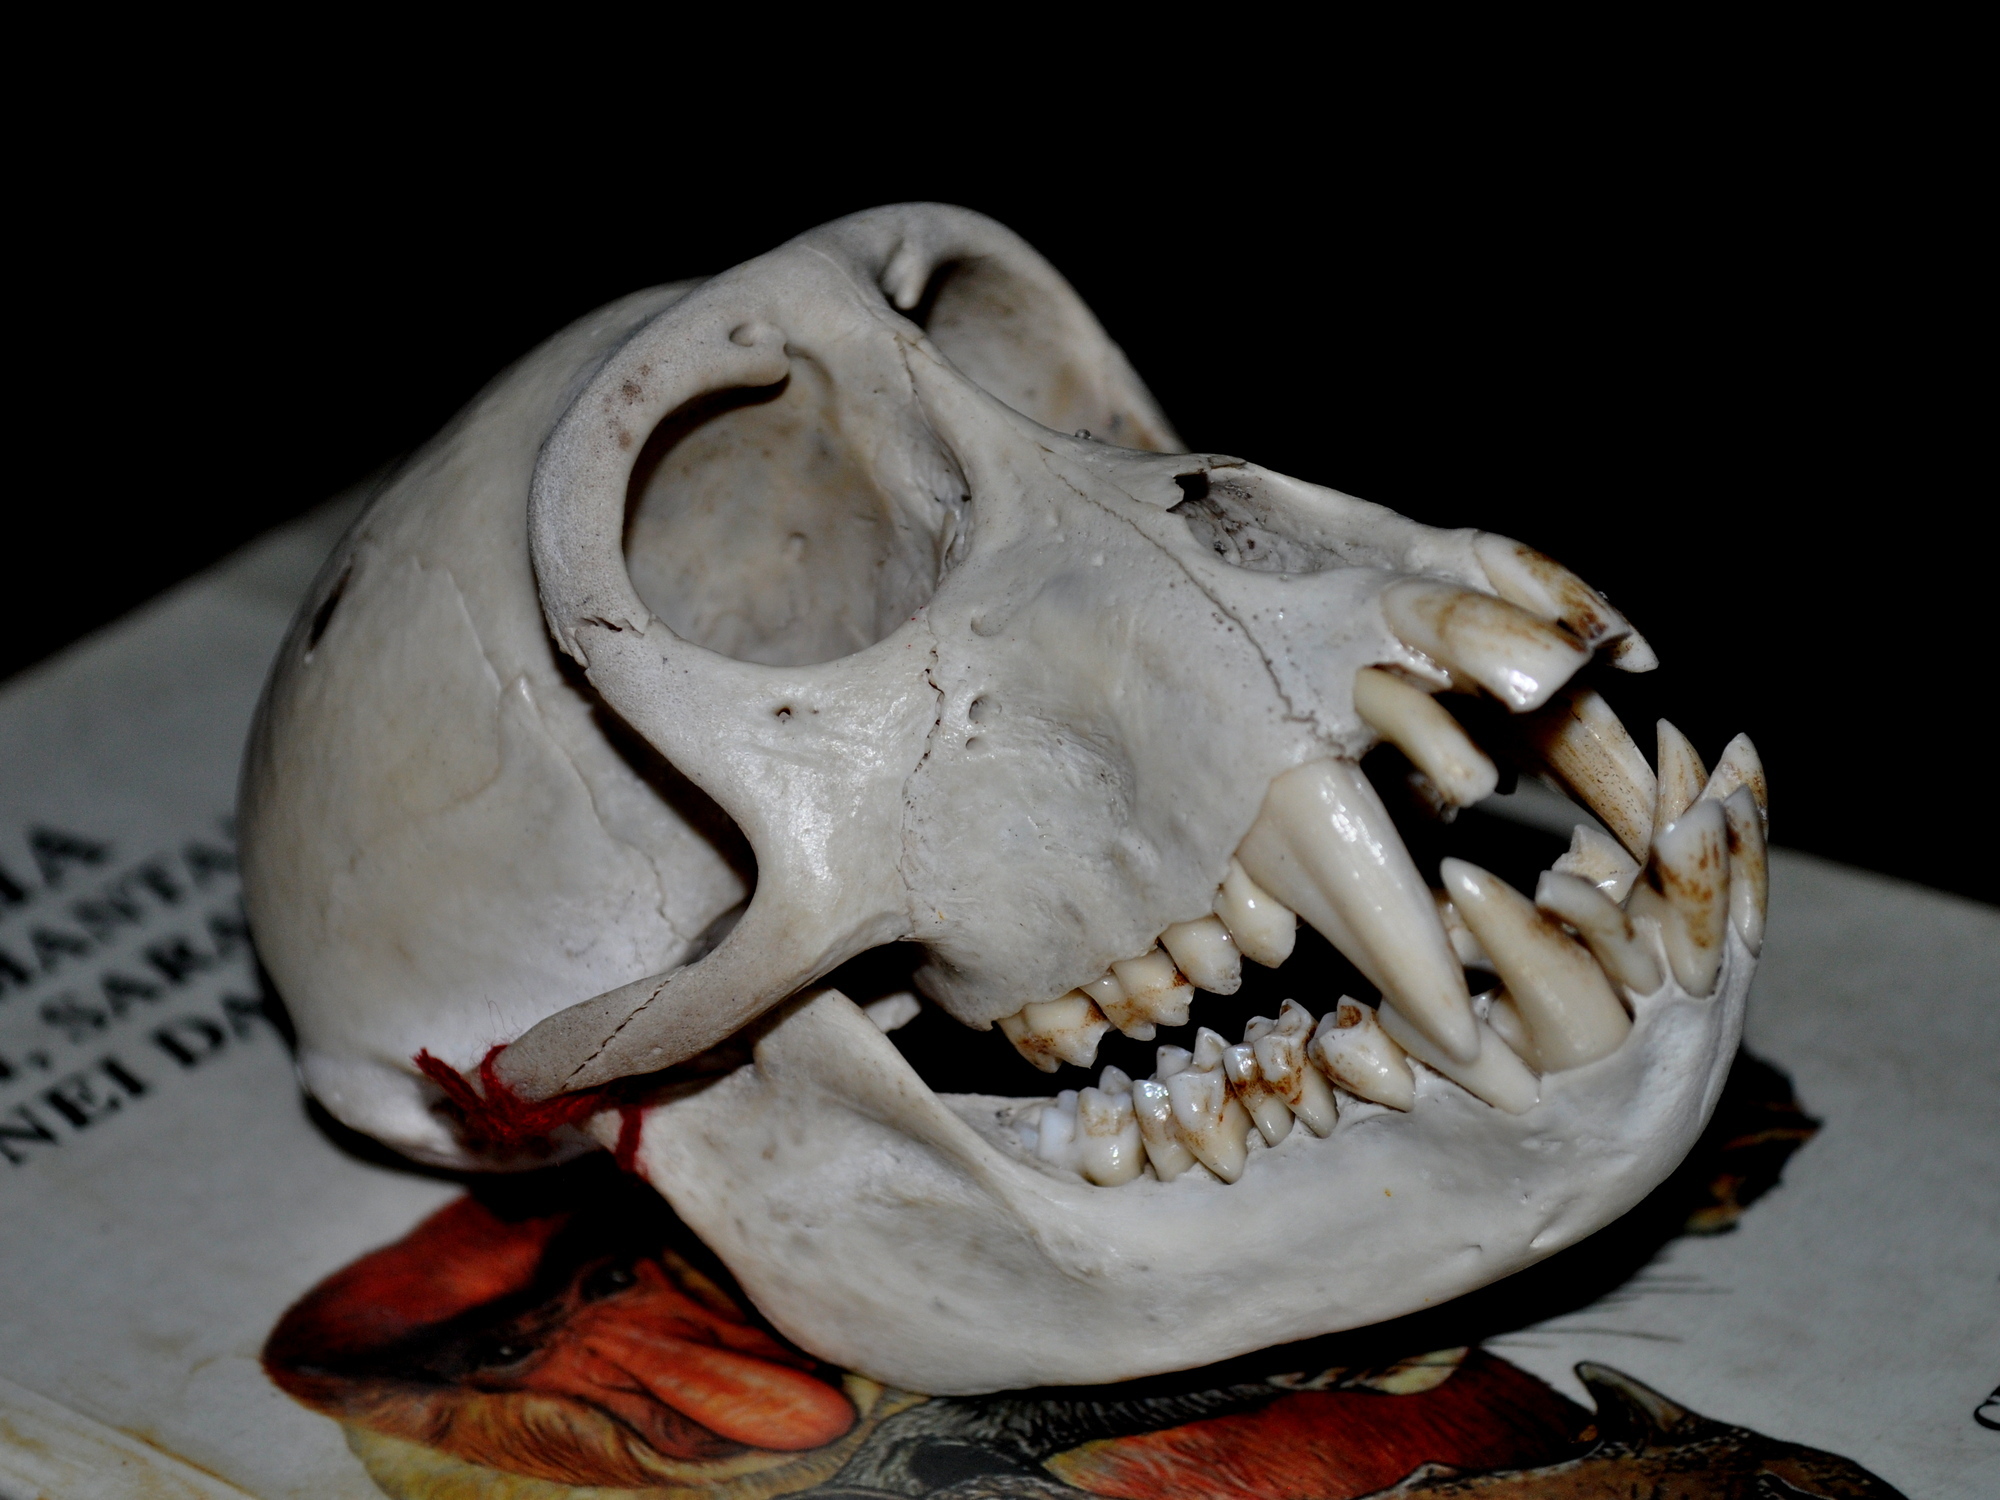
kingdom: Animalia
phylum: Chordata
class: Mammalia
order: Primates
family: Cercopithecidae
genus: Macaca
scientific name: Macaca nemestrina
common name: Southern pig-tailed macaque
